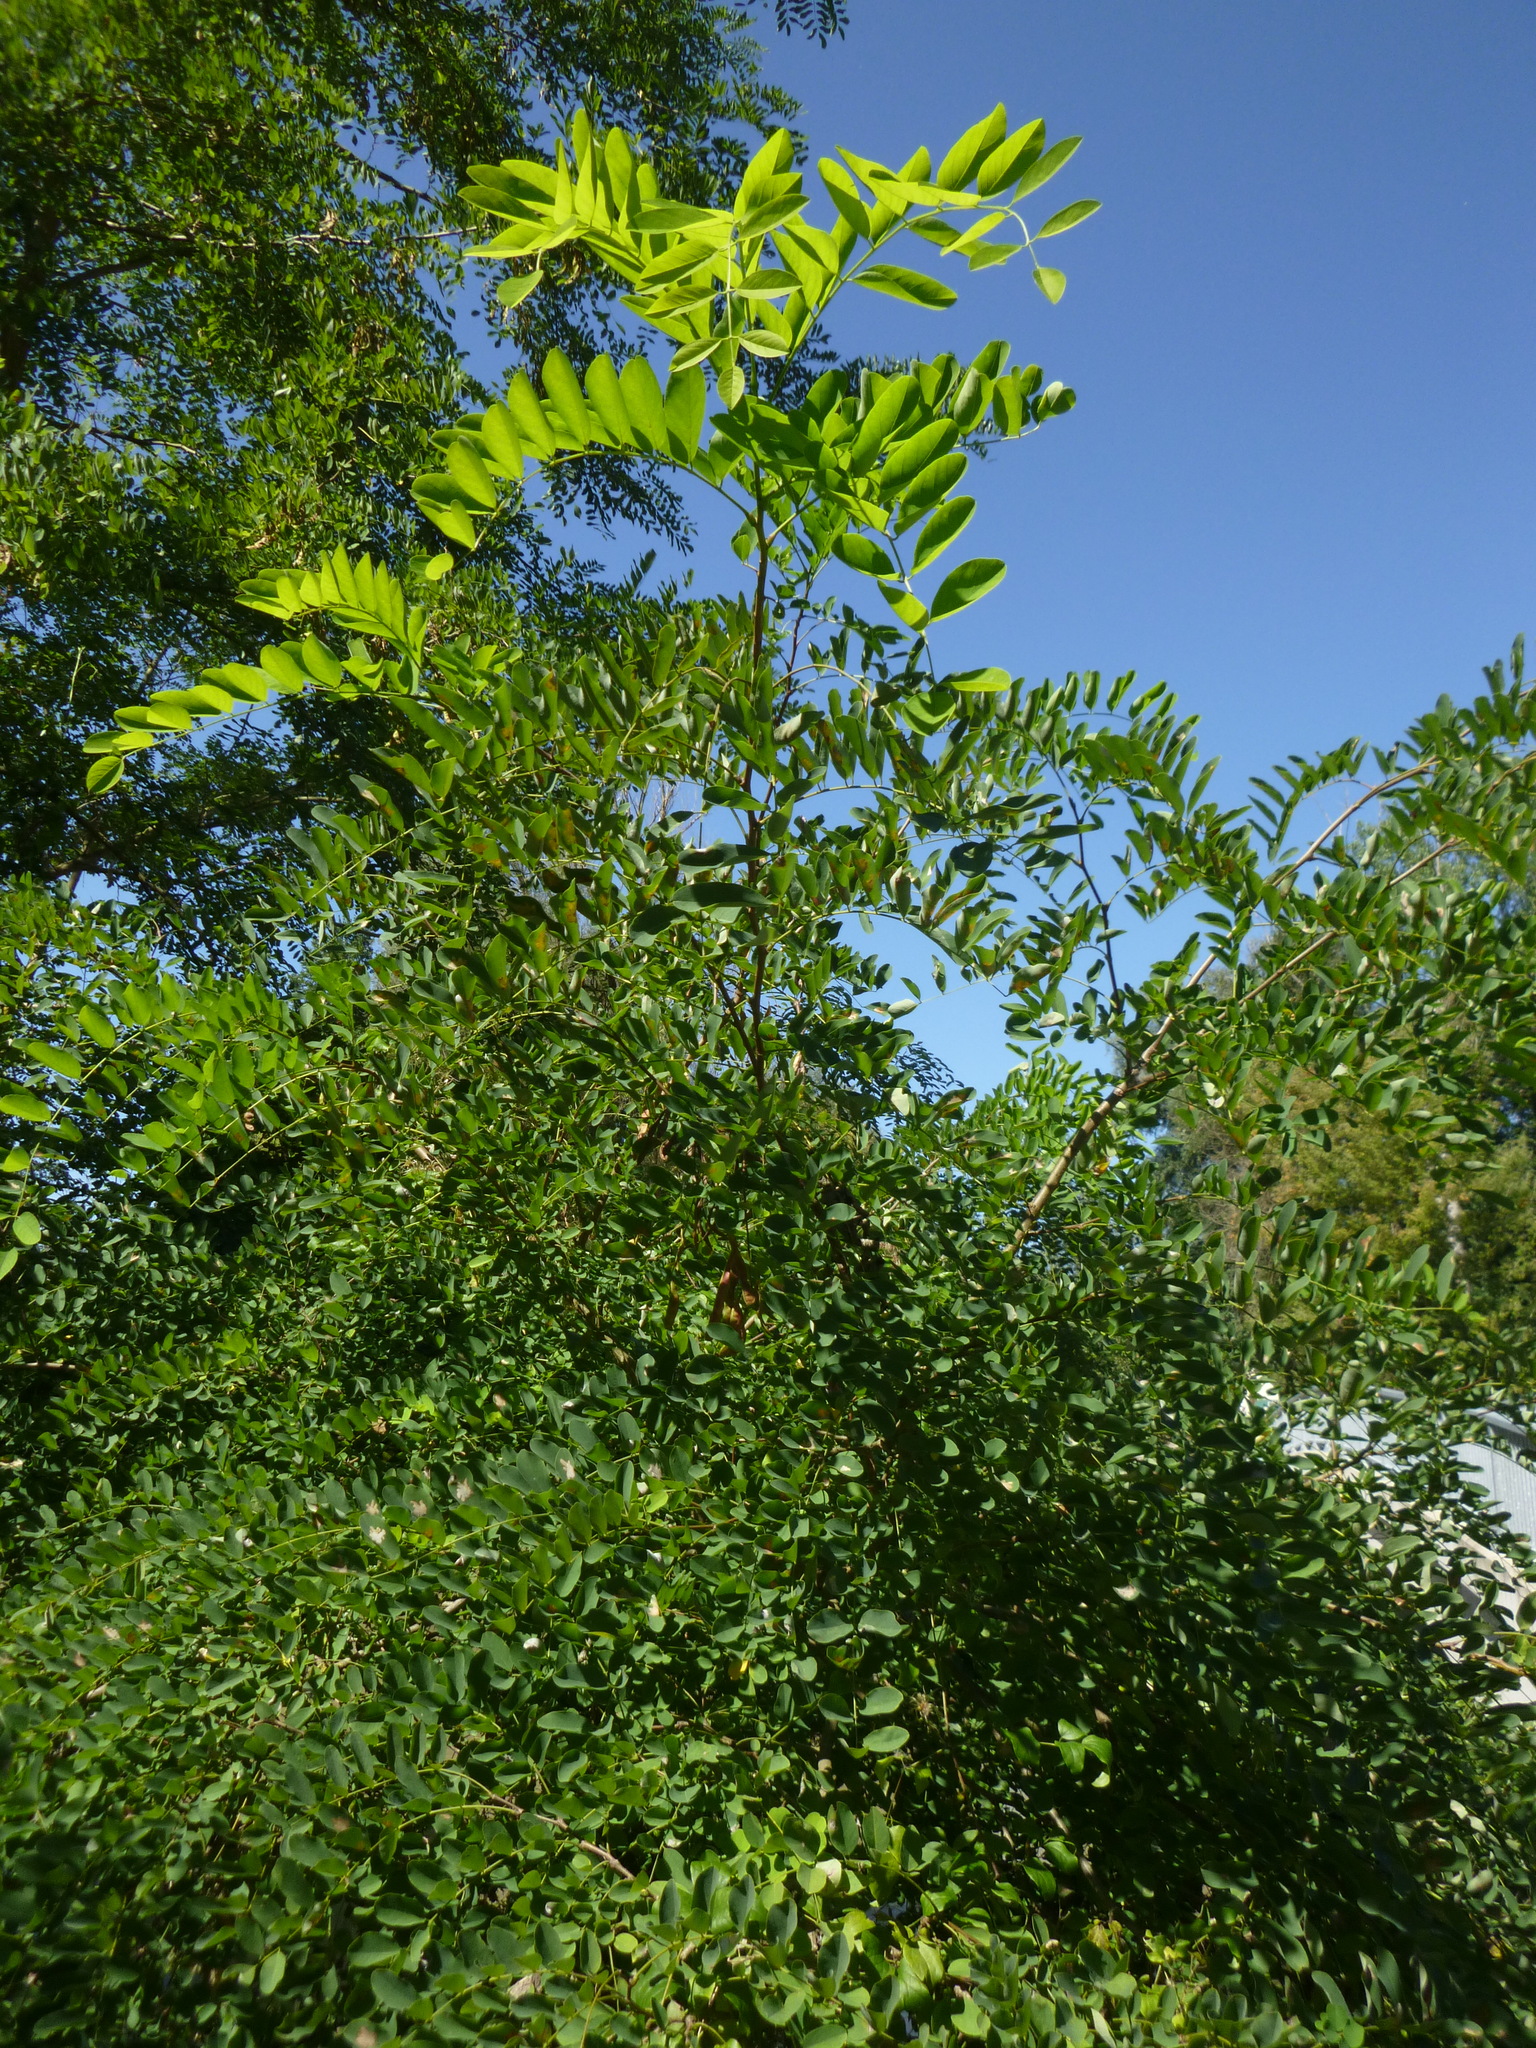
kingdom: Plantae
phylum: Tracheophyta
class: Magnoliopsida
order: Fabales
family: Fabaceae
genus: Robinia
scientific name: Robinia pseudoacacia
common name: Black locust
